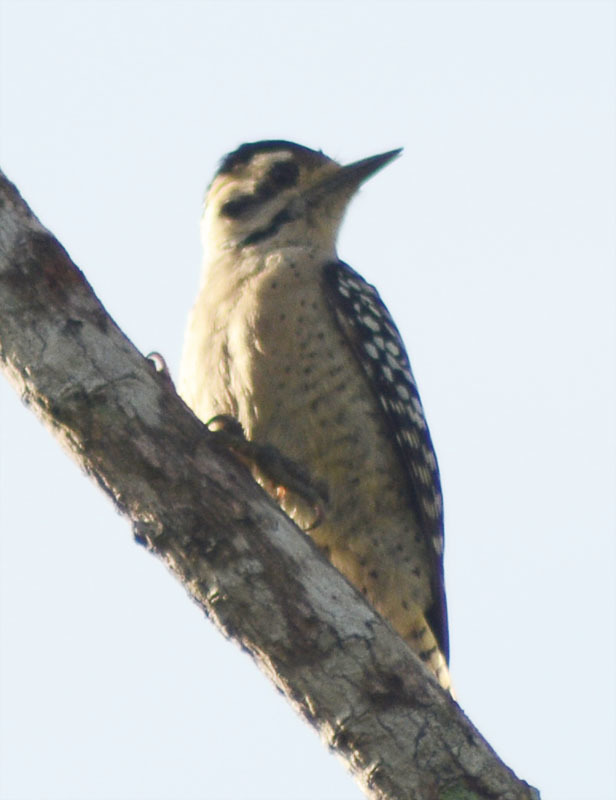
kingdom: Animalia
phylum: Chordata
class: Aves
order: Piciformes
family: Picidae
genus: Dryobates
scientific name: Dryobates scalaris
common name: Ladder-backed woodpecker
